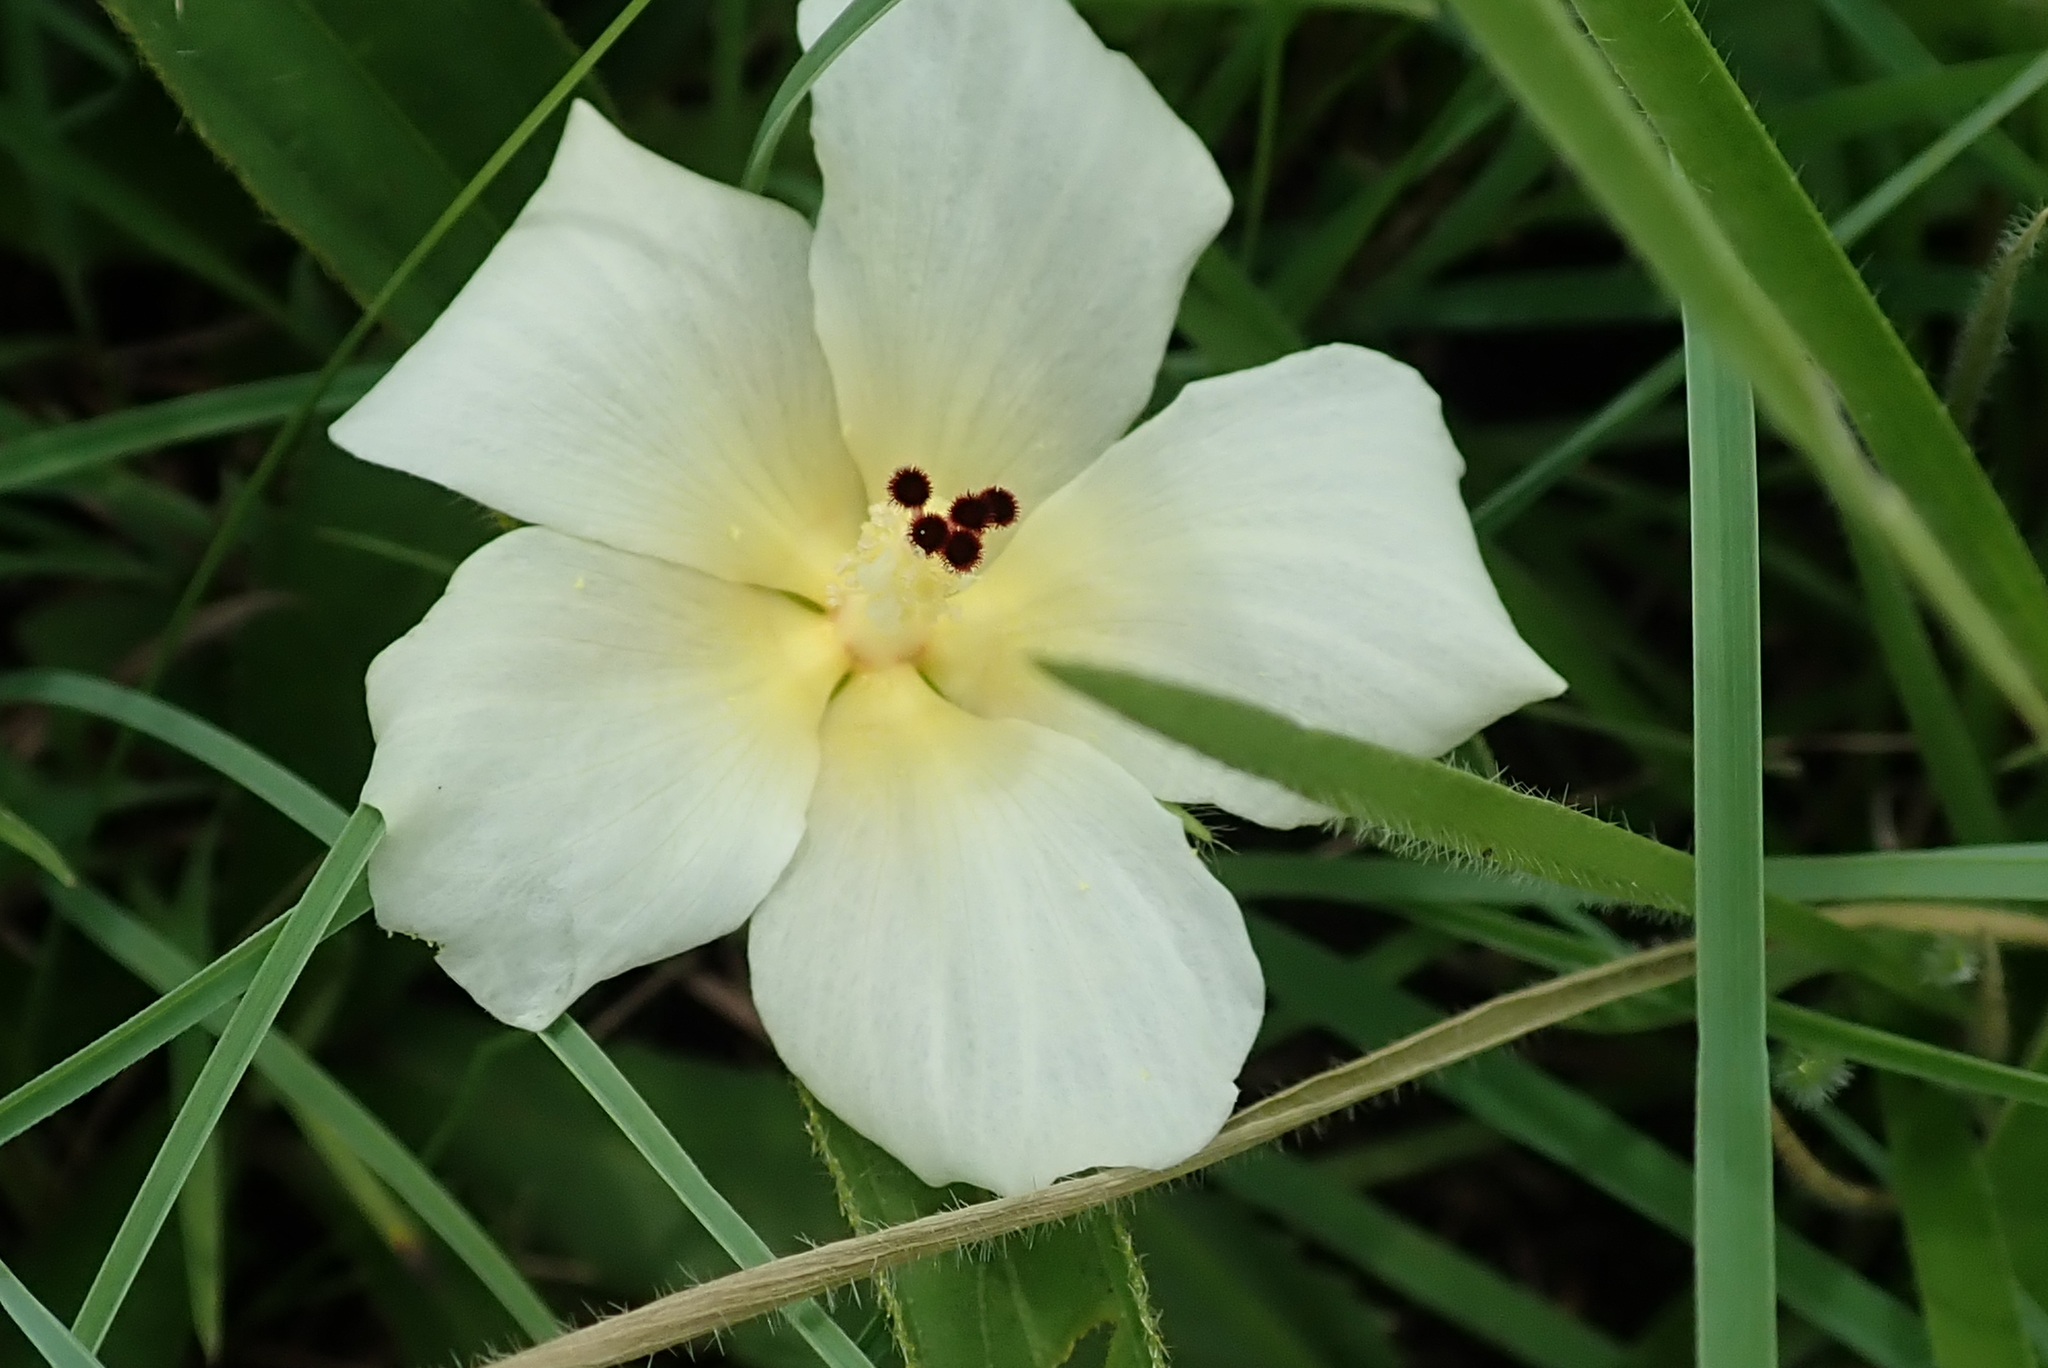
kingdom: Plantae
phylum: Tracheophyta
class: Magnoliopsida
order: Malvales
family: Malvaceae
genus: Hibiscus
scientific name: Hibiscus aethiopicus
